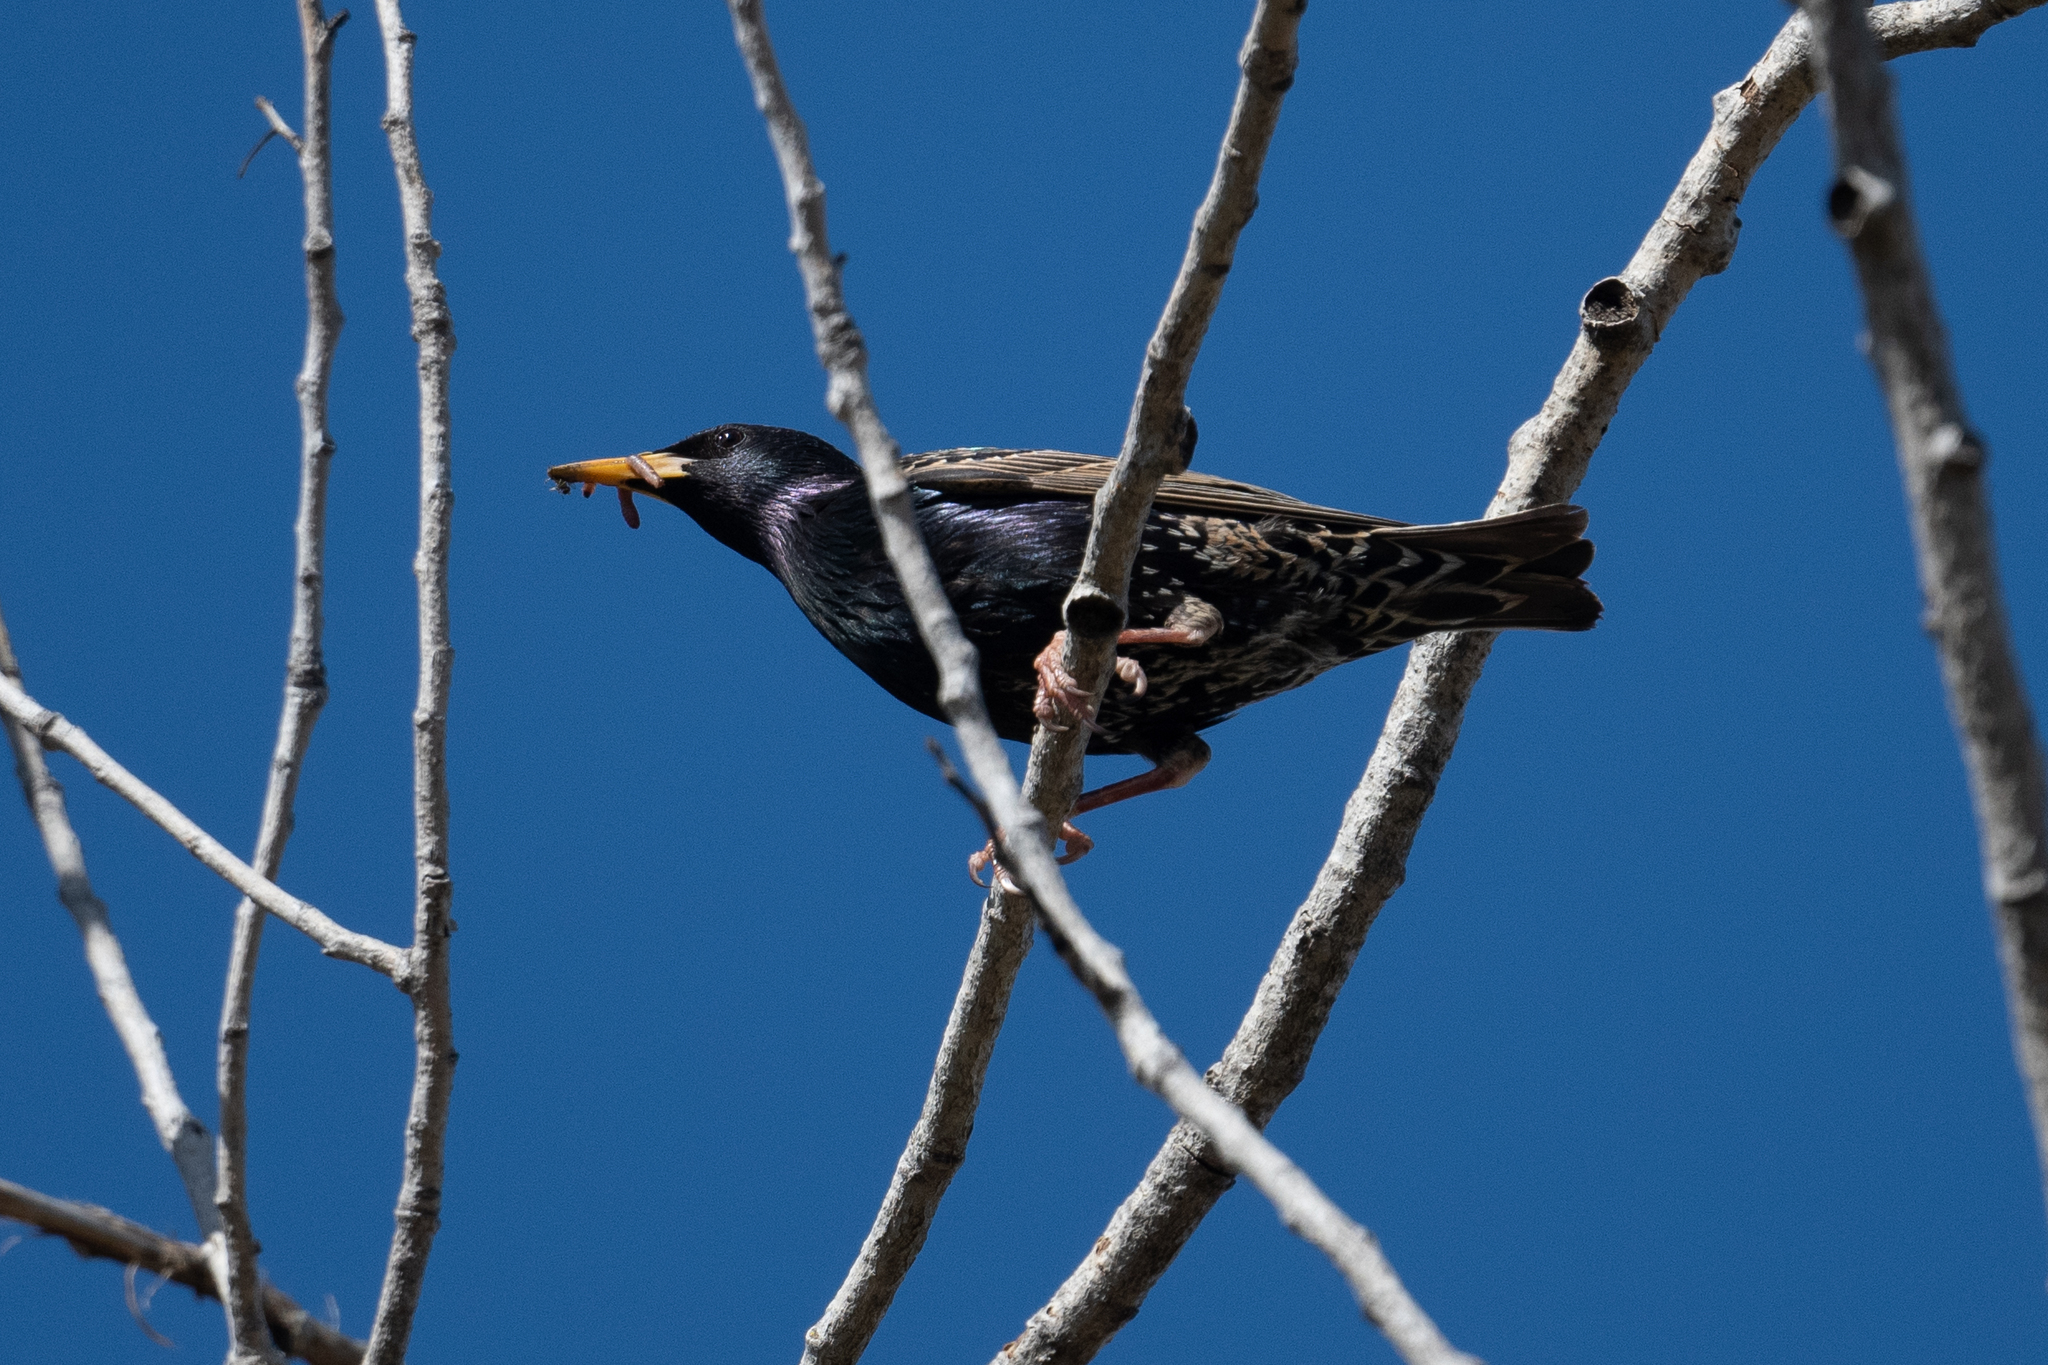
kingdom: Animalia
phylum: Chordata
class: Aves
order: Passeriformes
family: Sturnidae
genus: Sturnus
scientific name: Sturnus vulgaris
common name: Common starling
